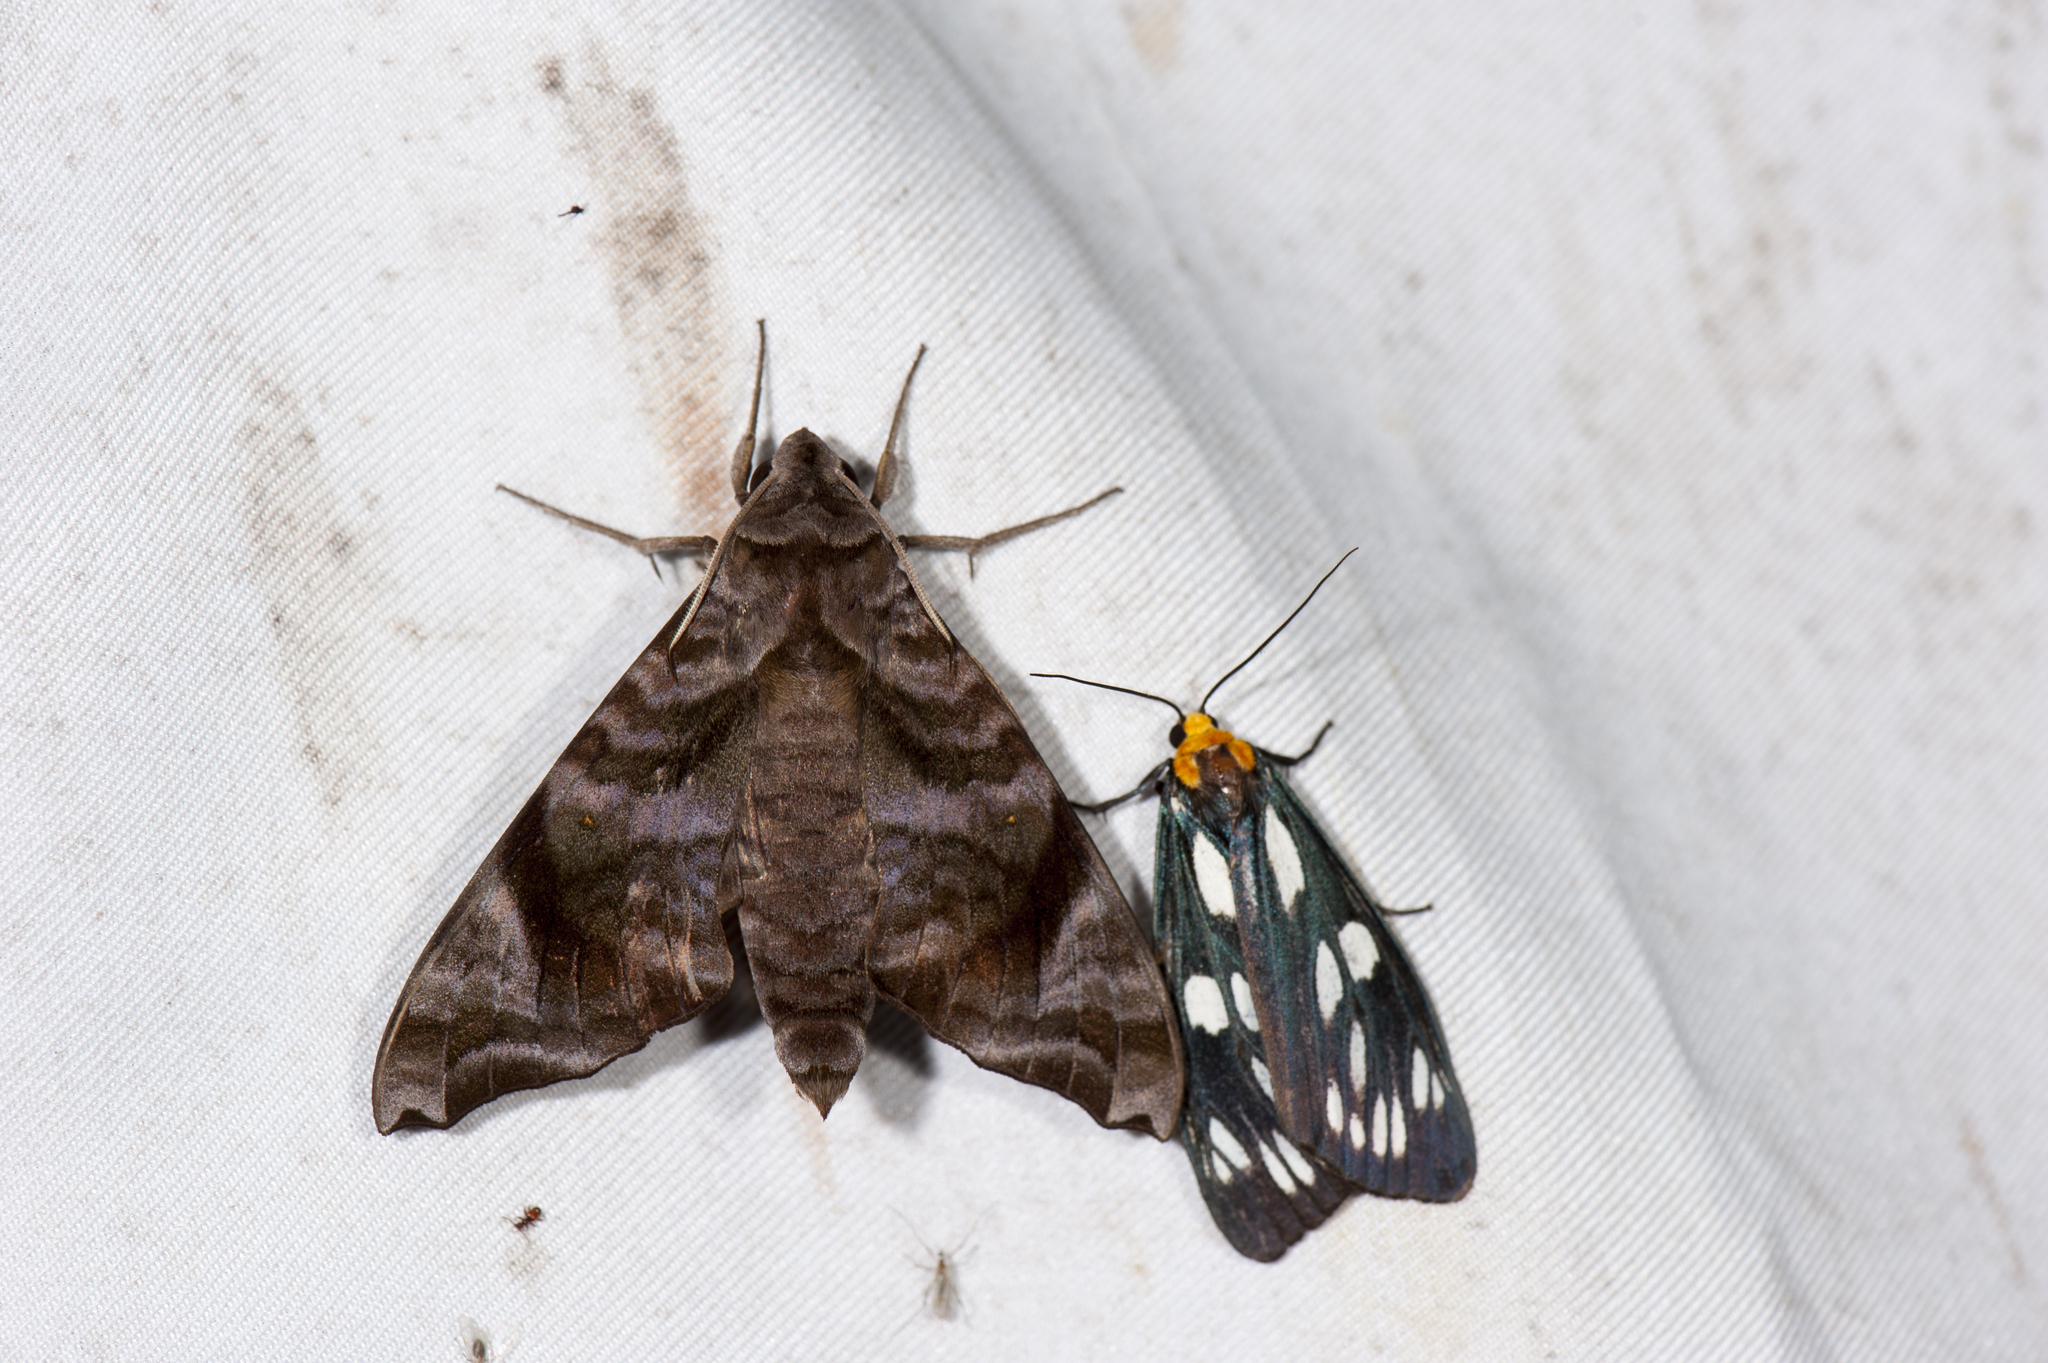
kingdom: Animalia
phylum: Arthropoda
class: Insecta
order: Lepidoptera
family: Sphingidae
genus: Acosmeryx
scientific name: Acosmeryx castanea
